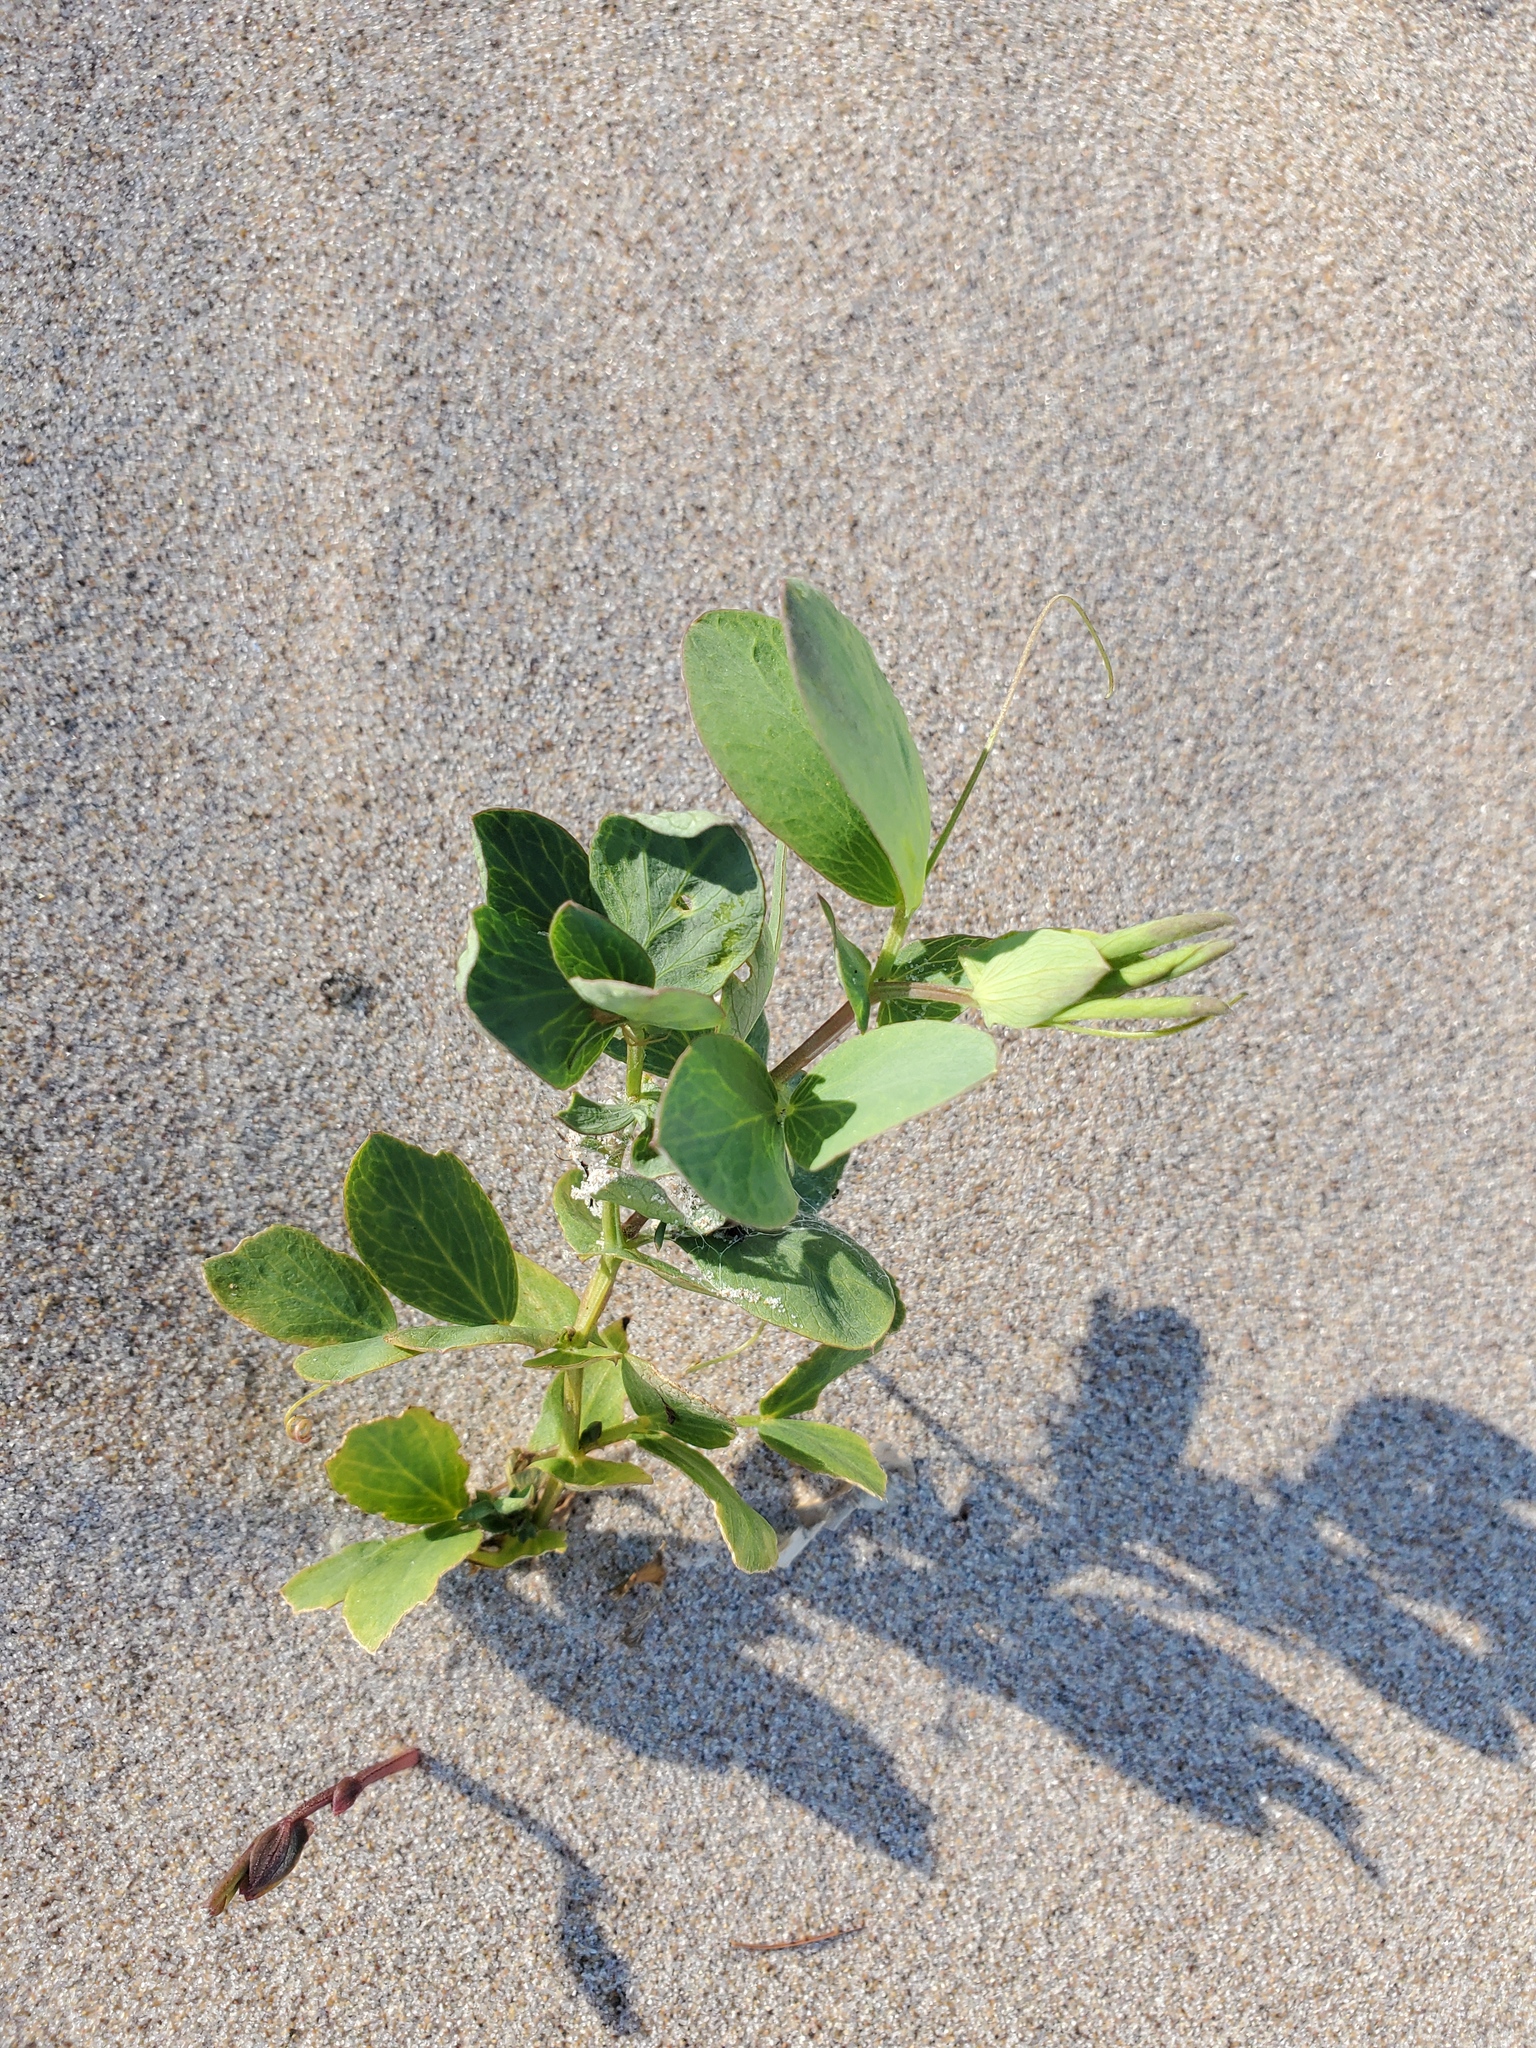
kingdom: Plantae
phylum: Tracheophyta
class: Magnoliopsida
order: Fabales
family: Fabaceae
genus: Lathyrus
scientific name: Lathyrus japonicus
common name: Sea pea
